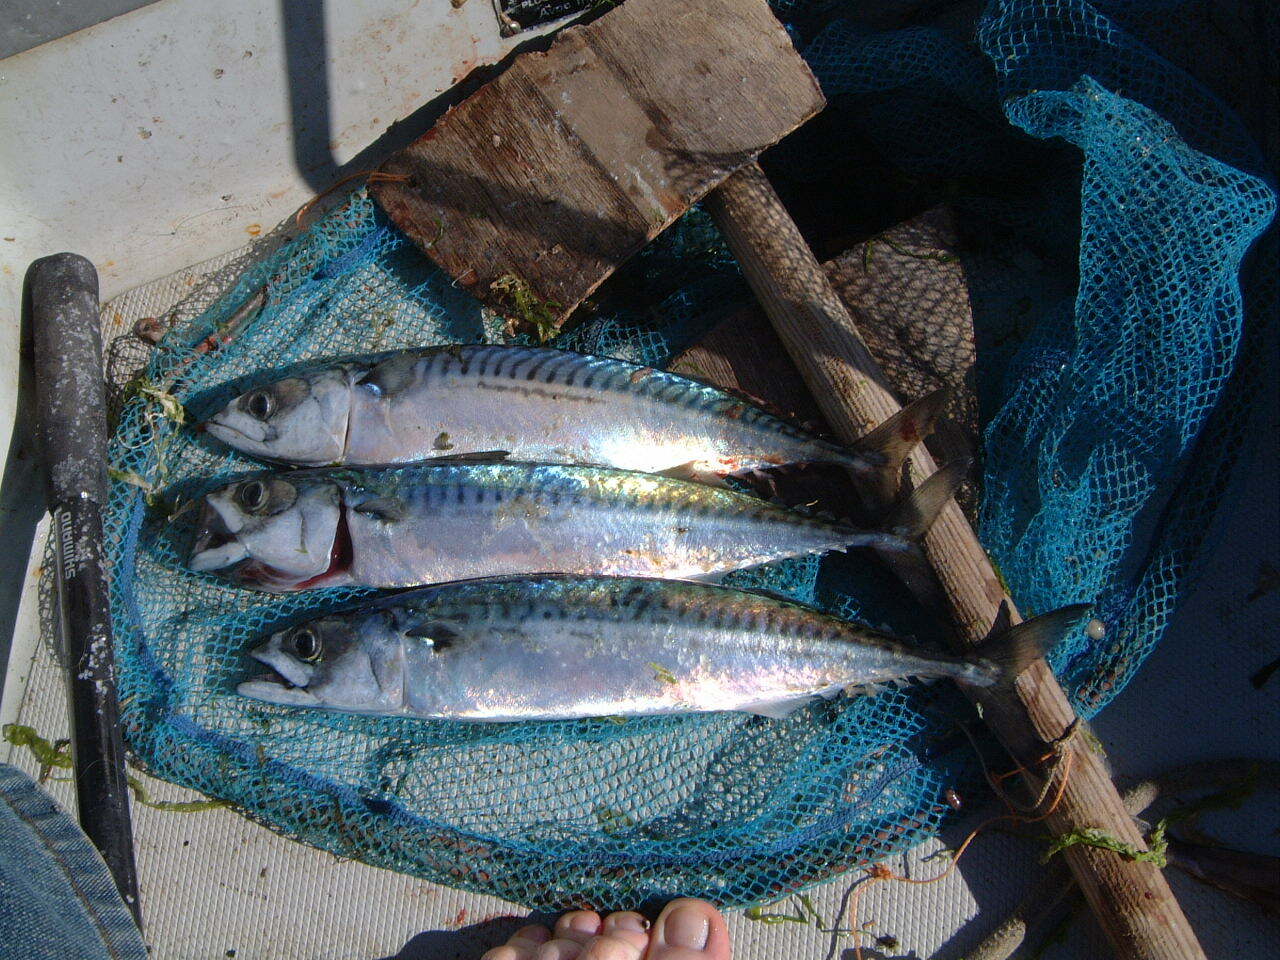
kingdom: Animalia
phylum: Chordata
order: Perciformes
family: Scombridae
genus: Scomber
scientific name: Scomber scombrus
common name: Mackerel
